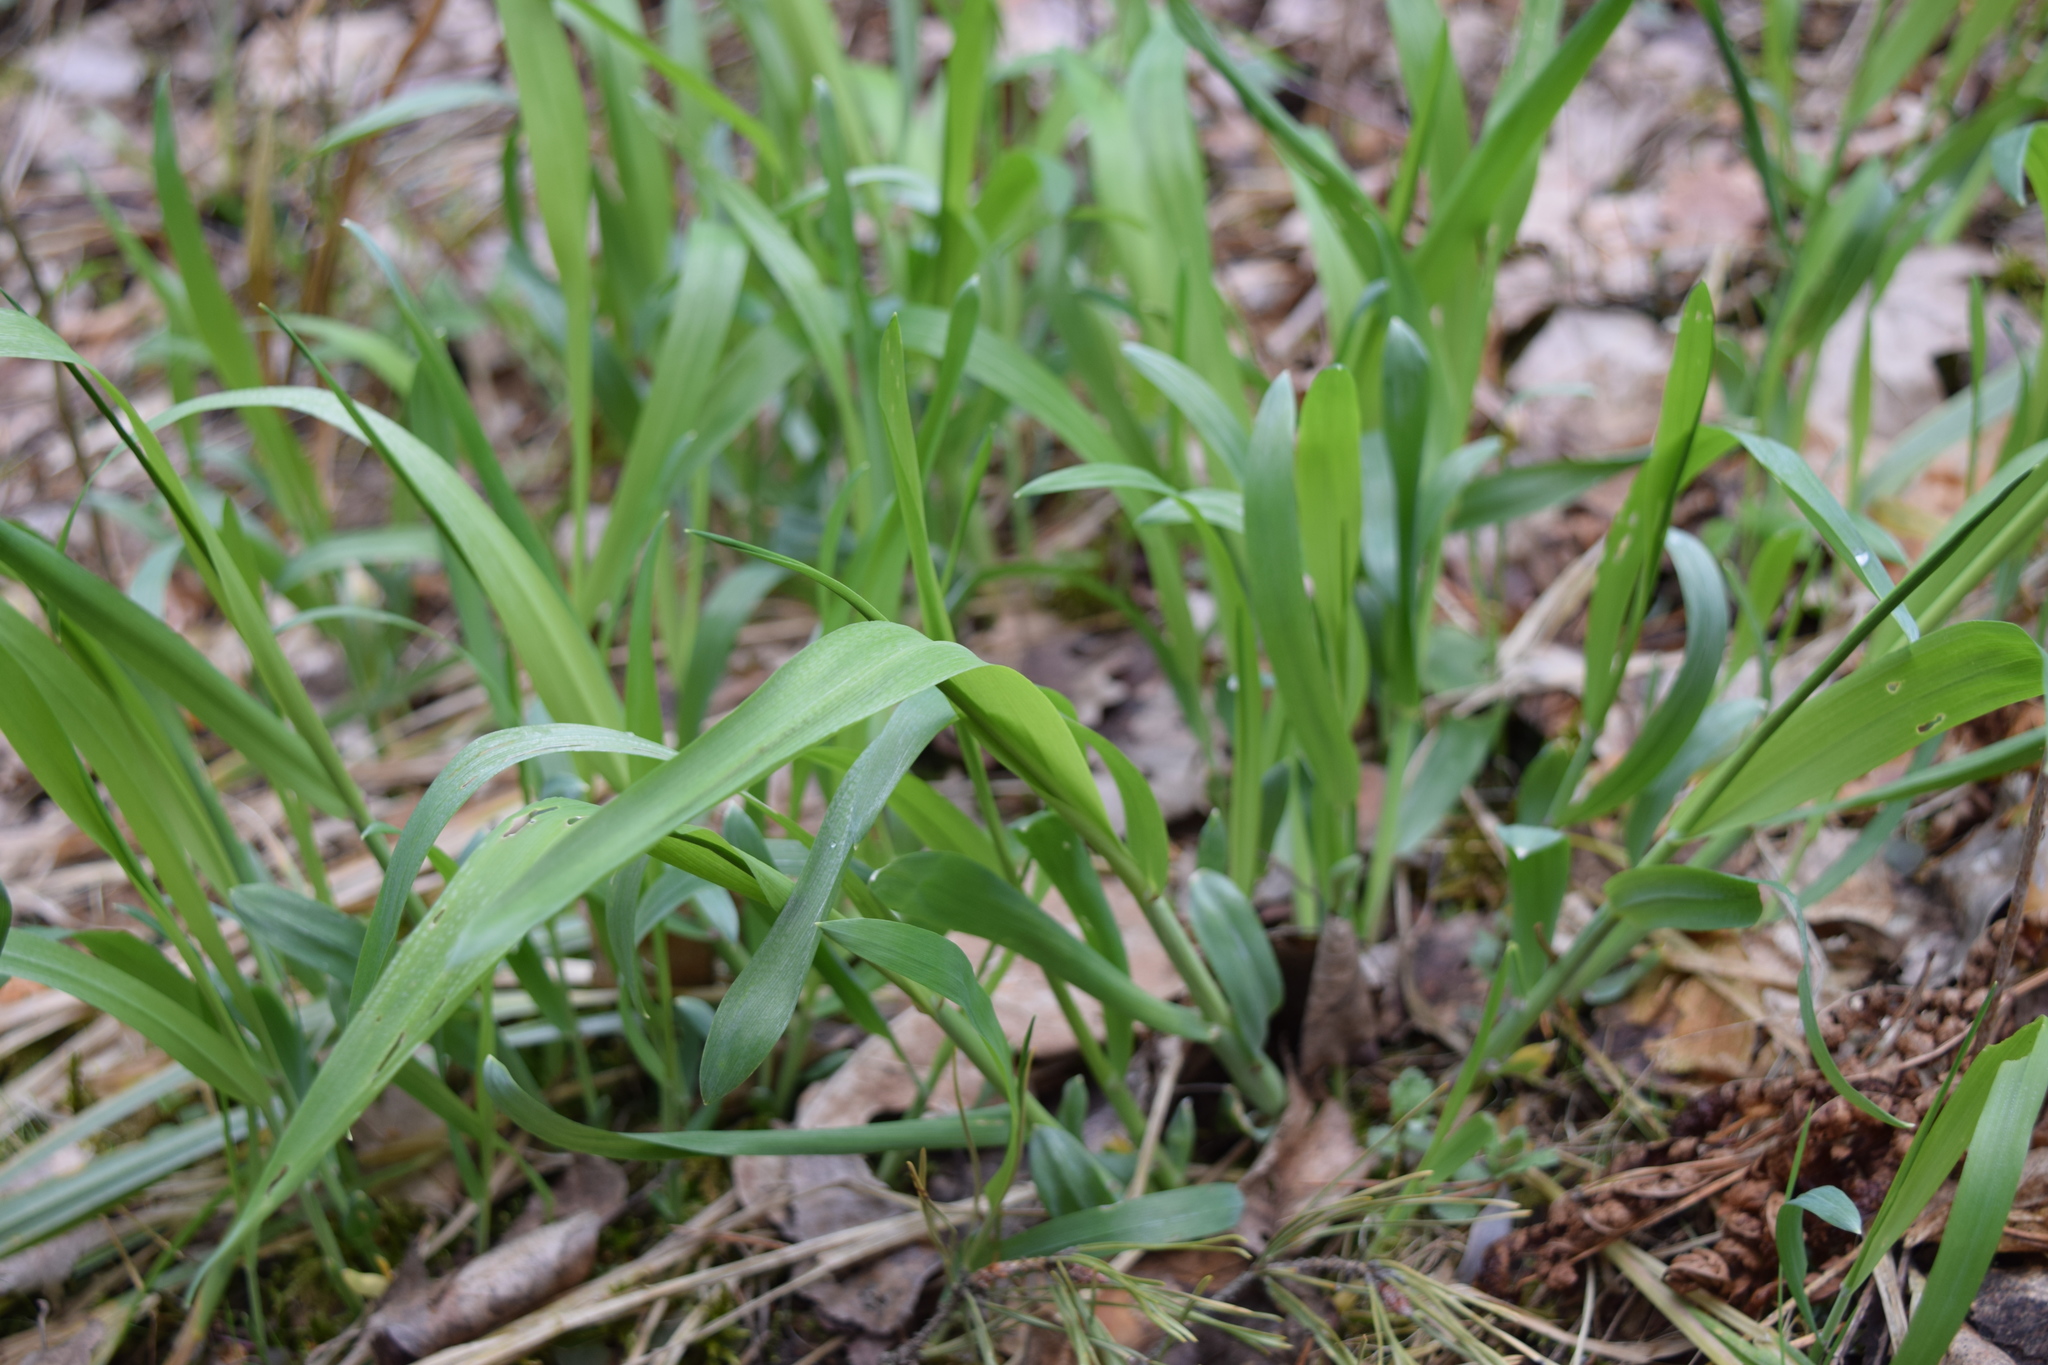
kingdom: Plantae
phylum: Tracheophyta
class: Liliopsida
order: Poales
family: Poaceae
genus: Milium
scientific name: Milium effusum
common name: Wood millet
